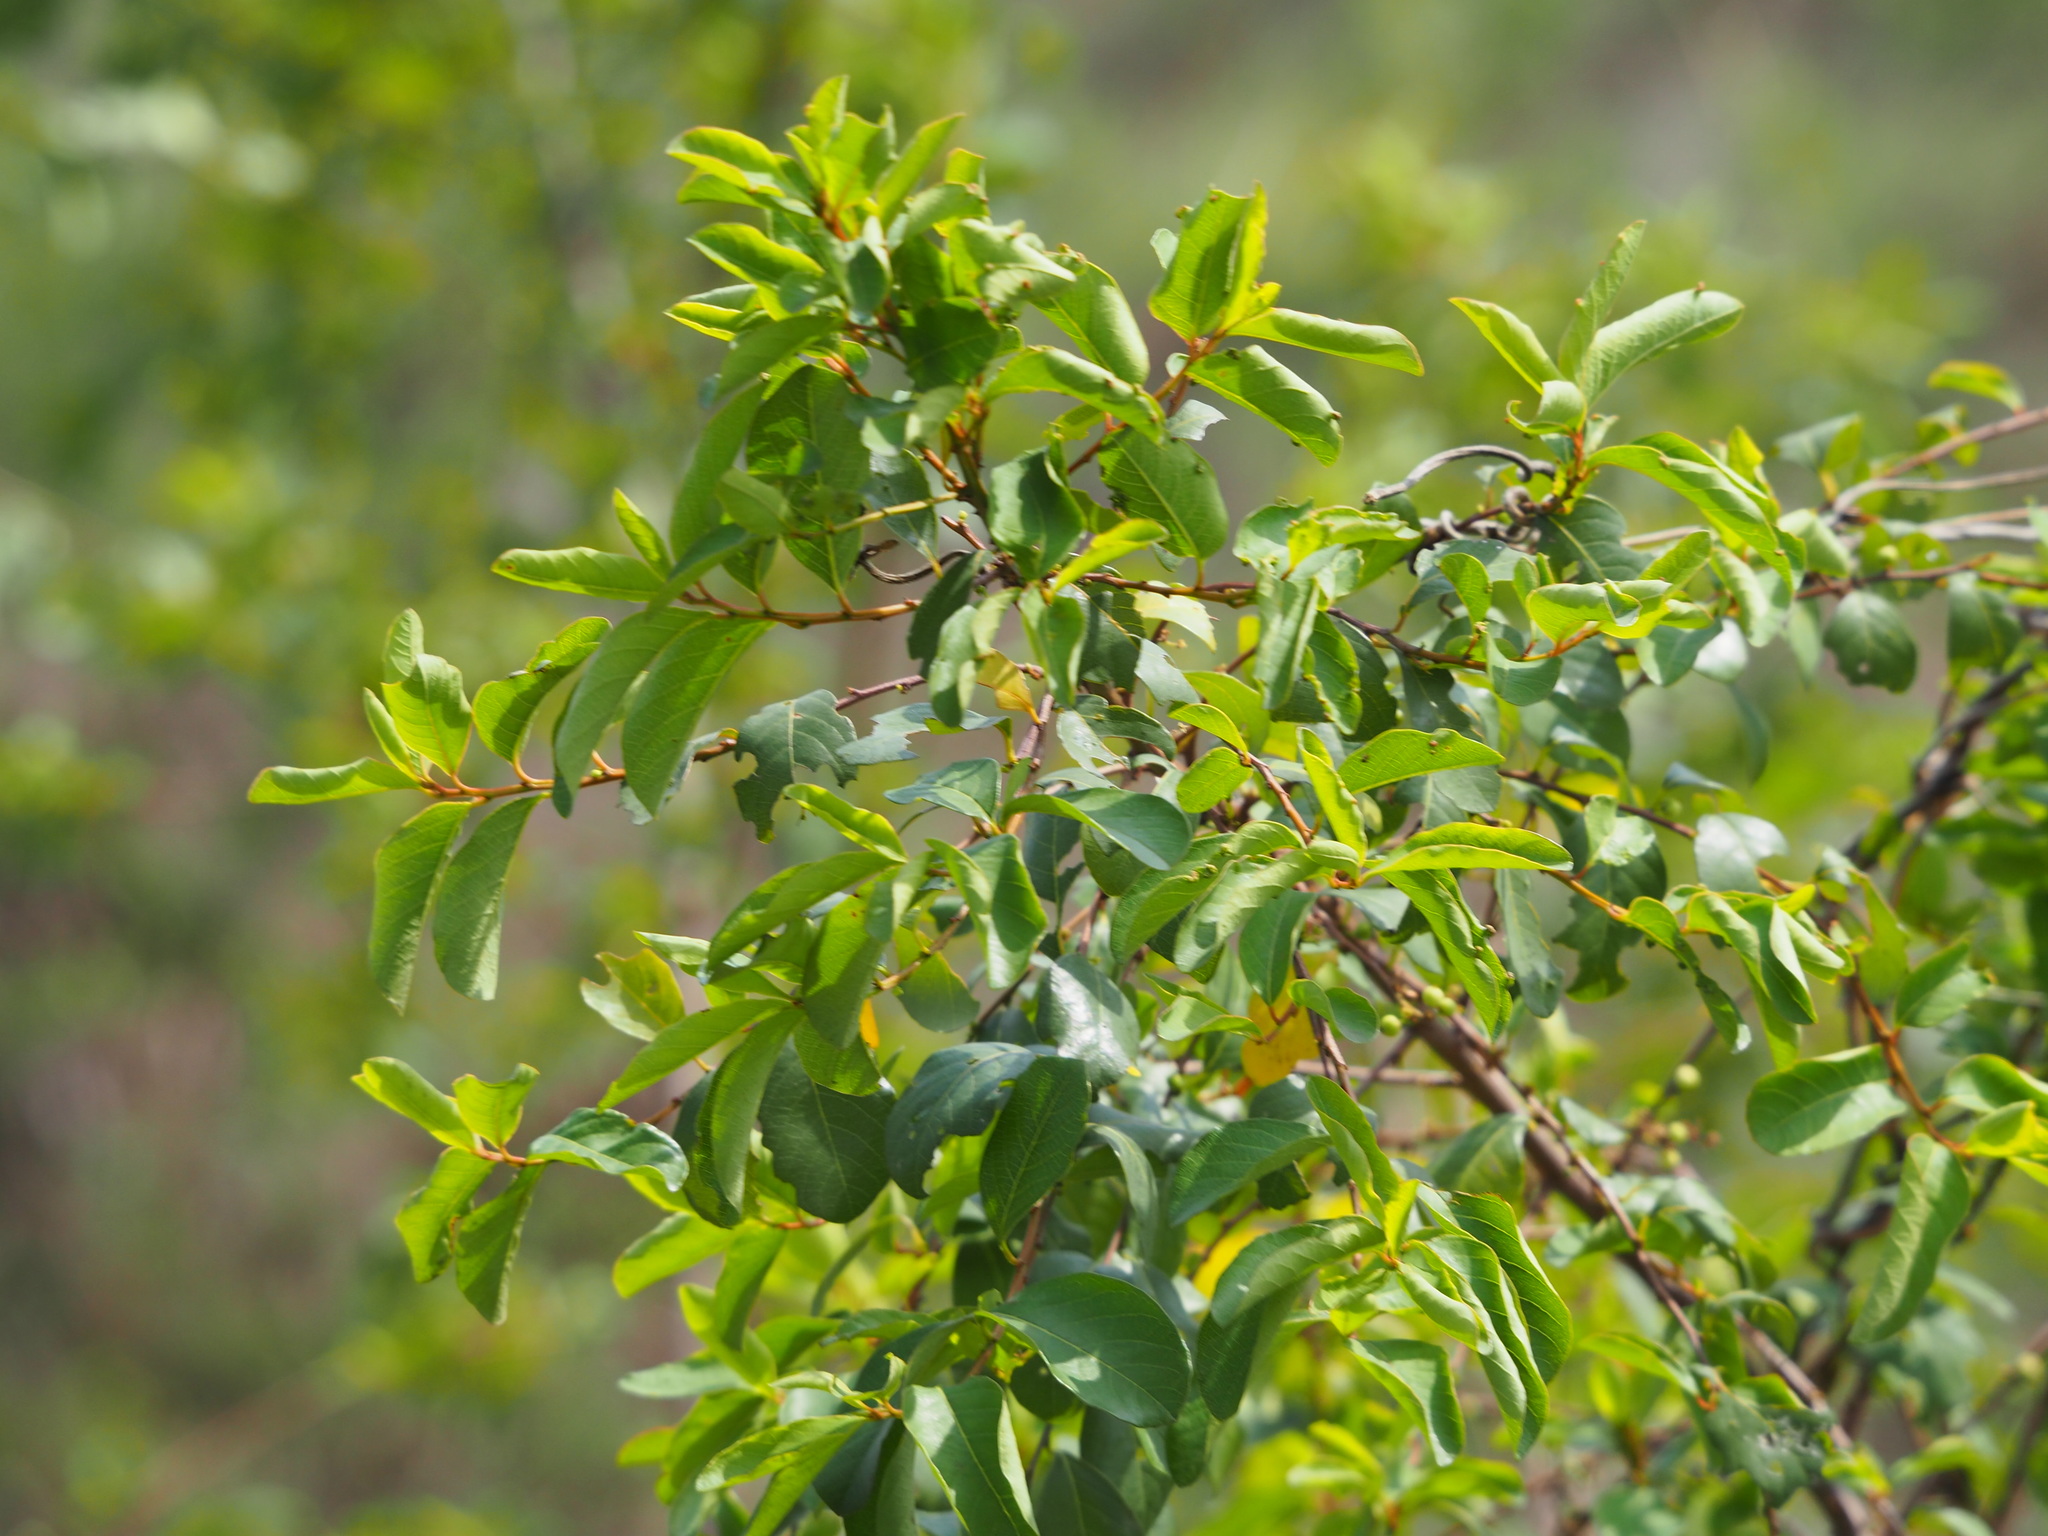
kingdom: Plantae
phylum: Tracheophyta
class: Magnoliopsida
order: Malpighiales
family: Phyllanthaceae
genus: Flueggea
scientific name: Flueggea virosa
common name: Common bushweed
